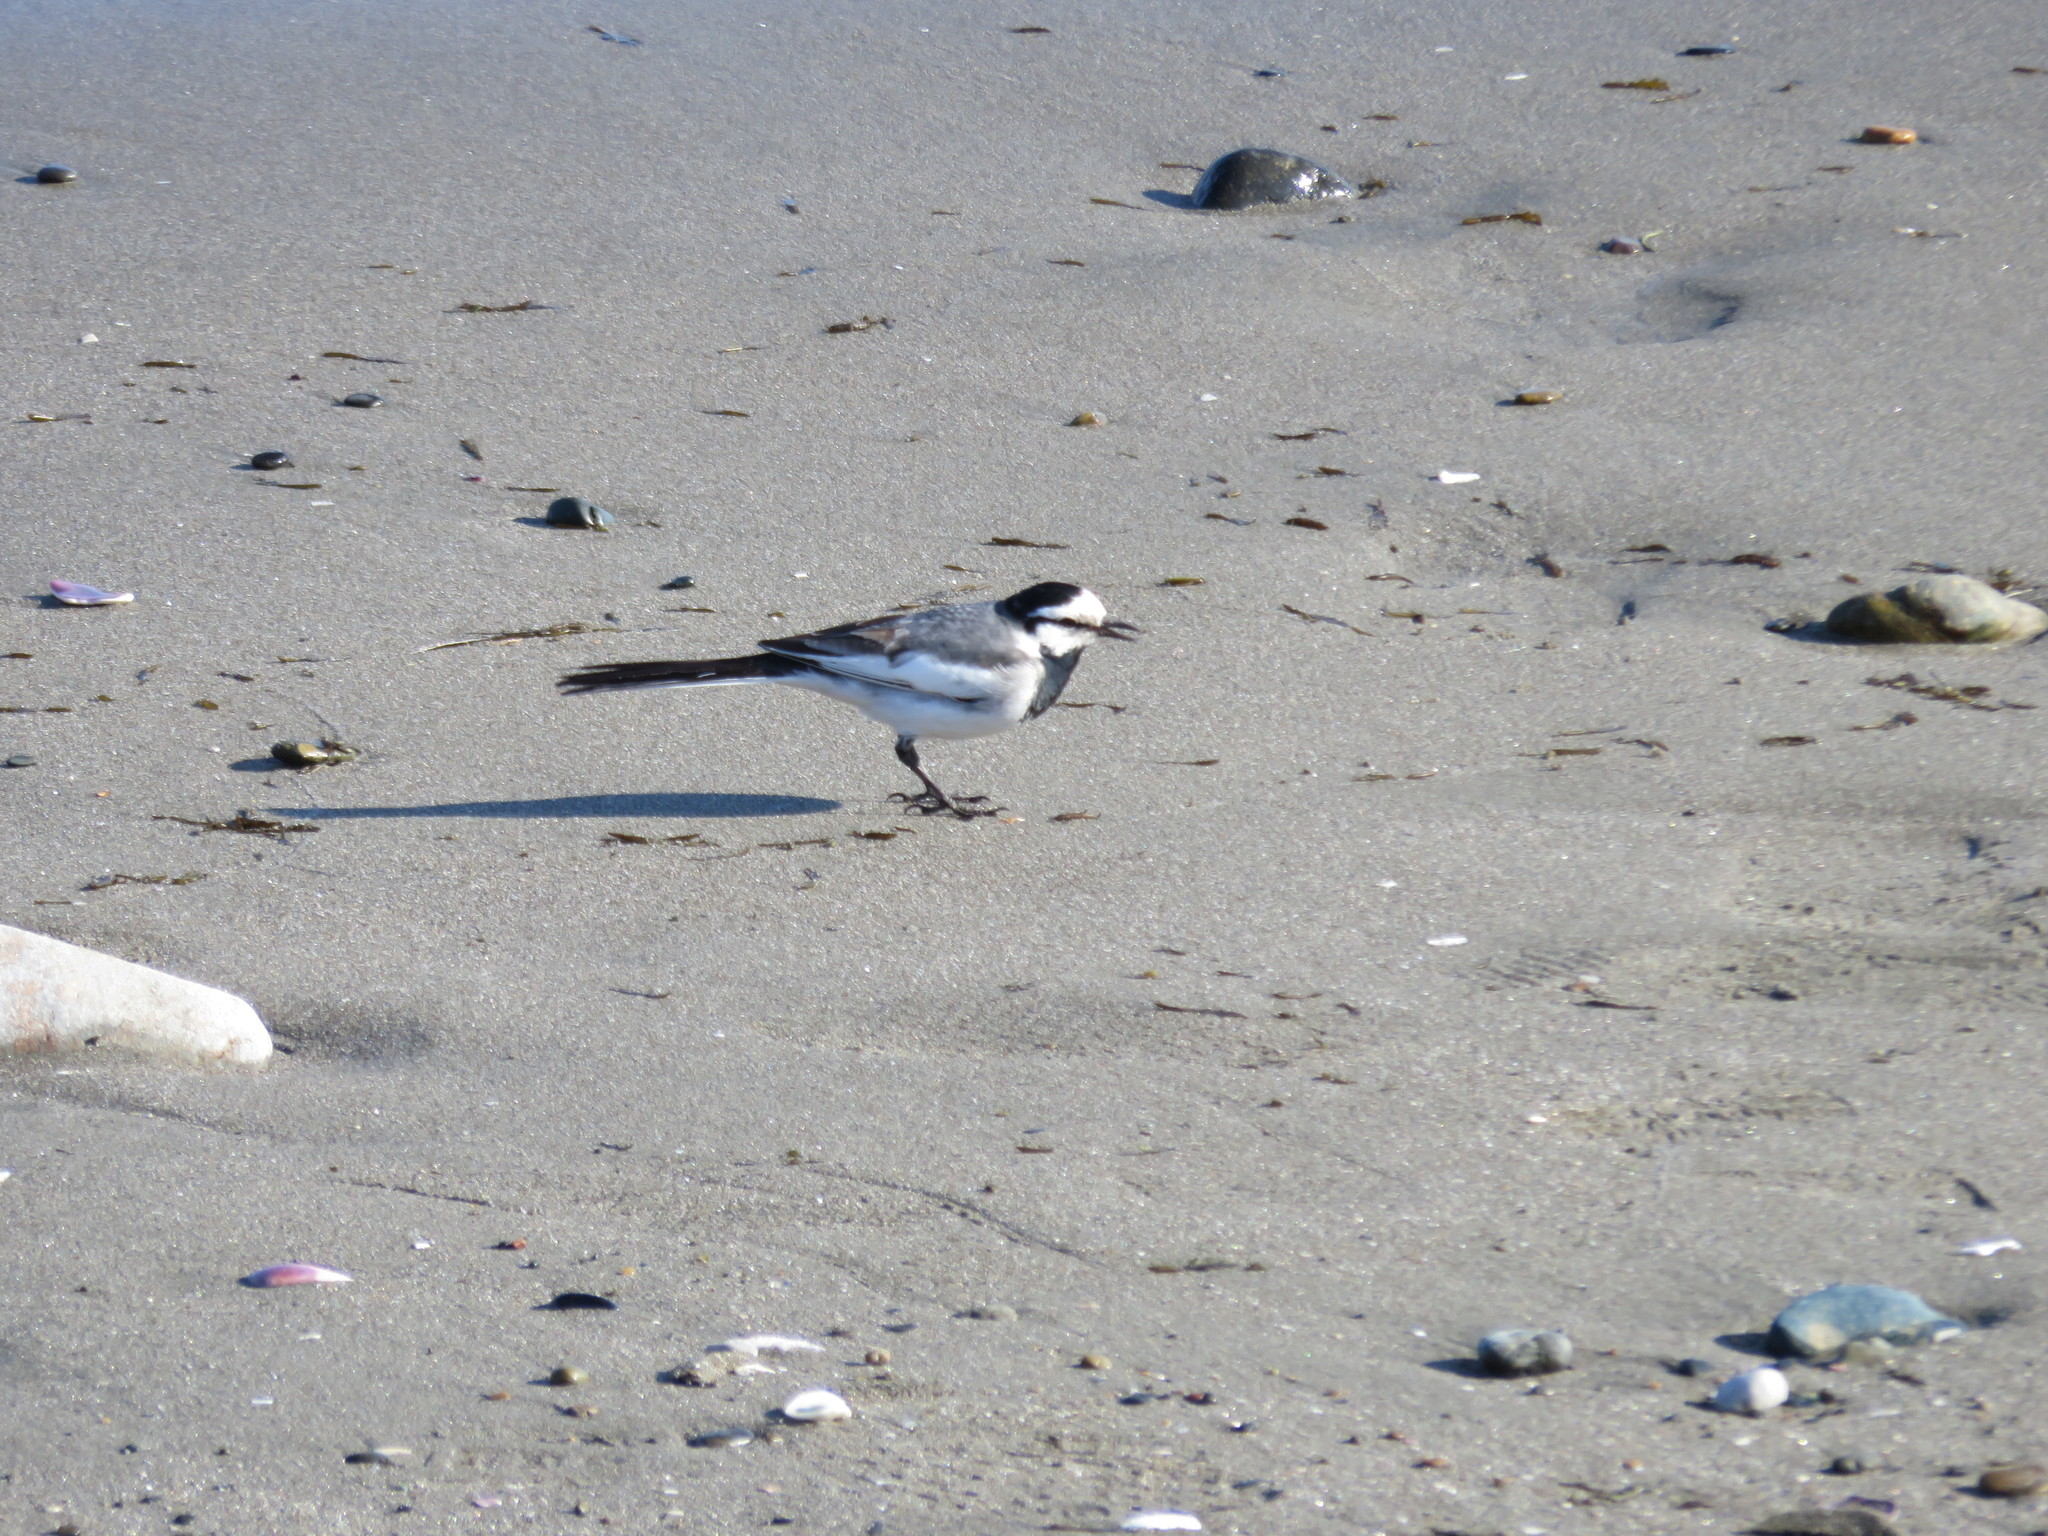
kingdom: Animalia
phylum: Chordata
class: Aves
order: Passeriformes
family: Motacillidae
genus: Motacilla
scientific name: Motacilla alba
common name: White wagtail
